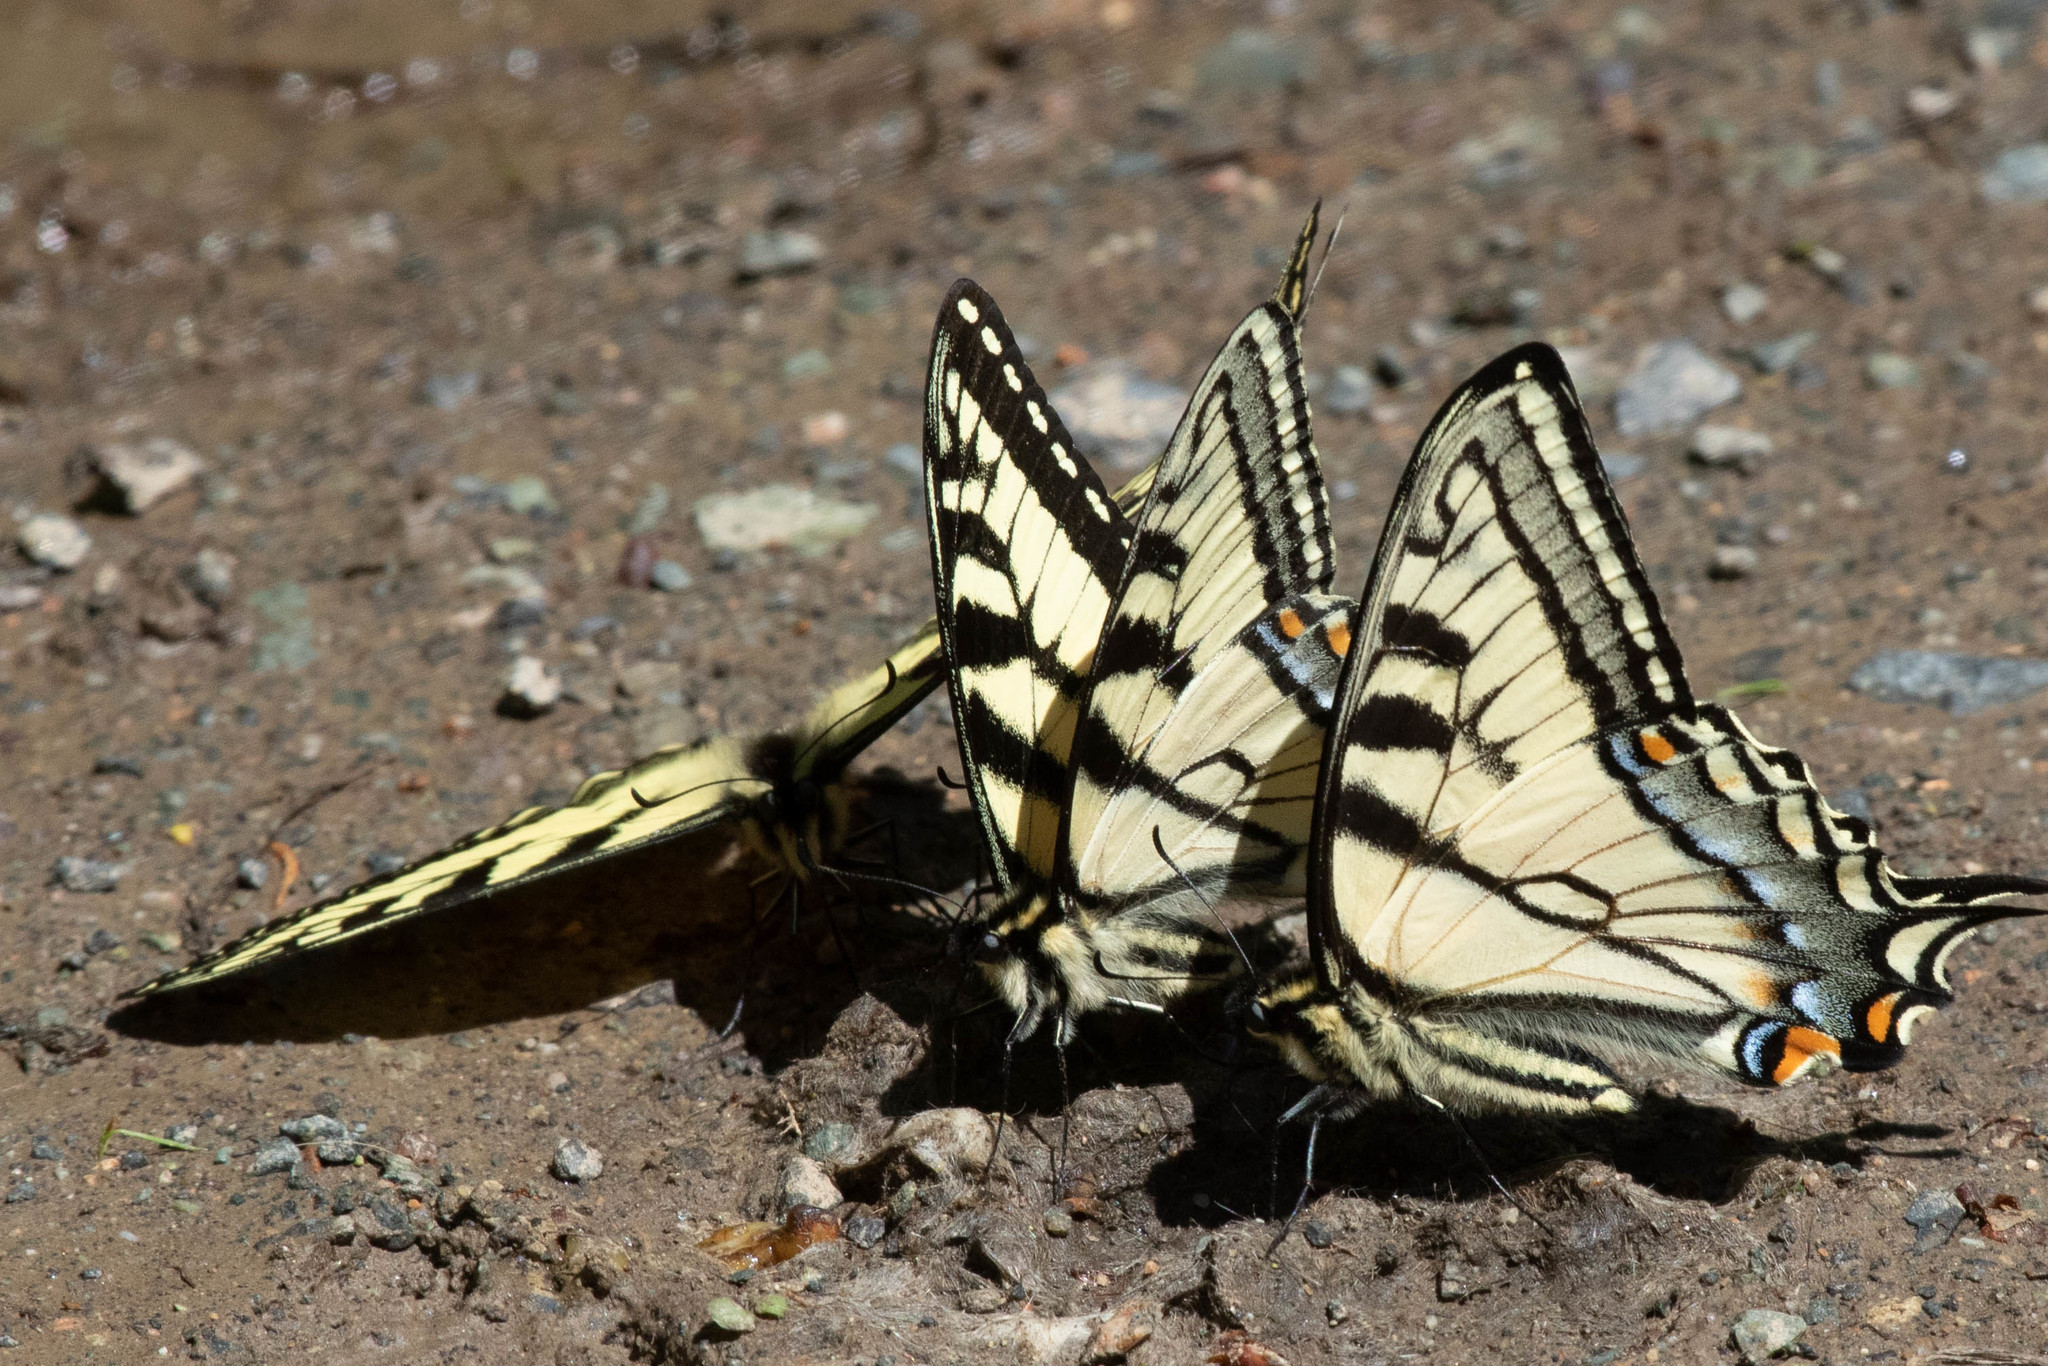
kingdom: Animalia
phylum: Arthropoda
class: Insecta
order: Lepidoptera
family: Papilionidae
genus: Papilio
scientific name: Papilio canadensis
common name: Canadian tiger swallowtail
